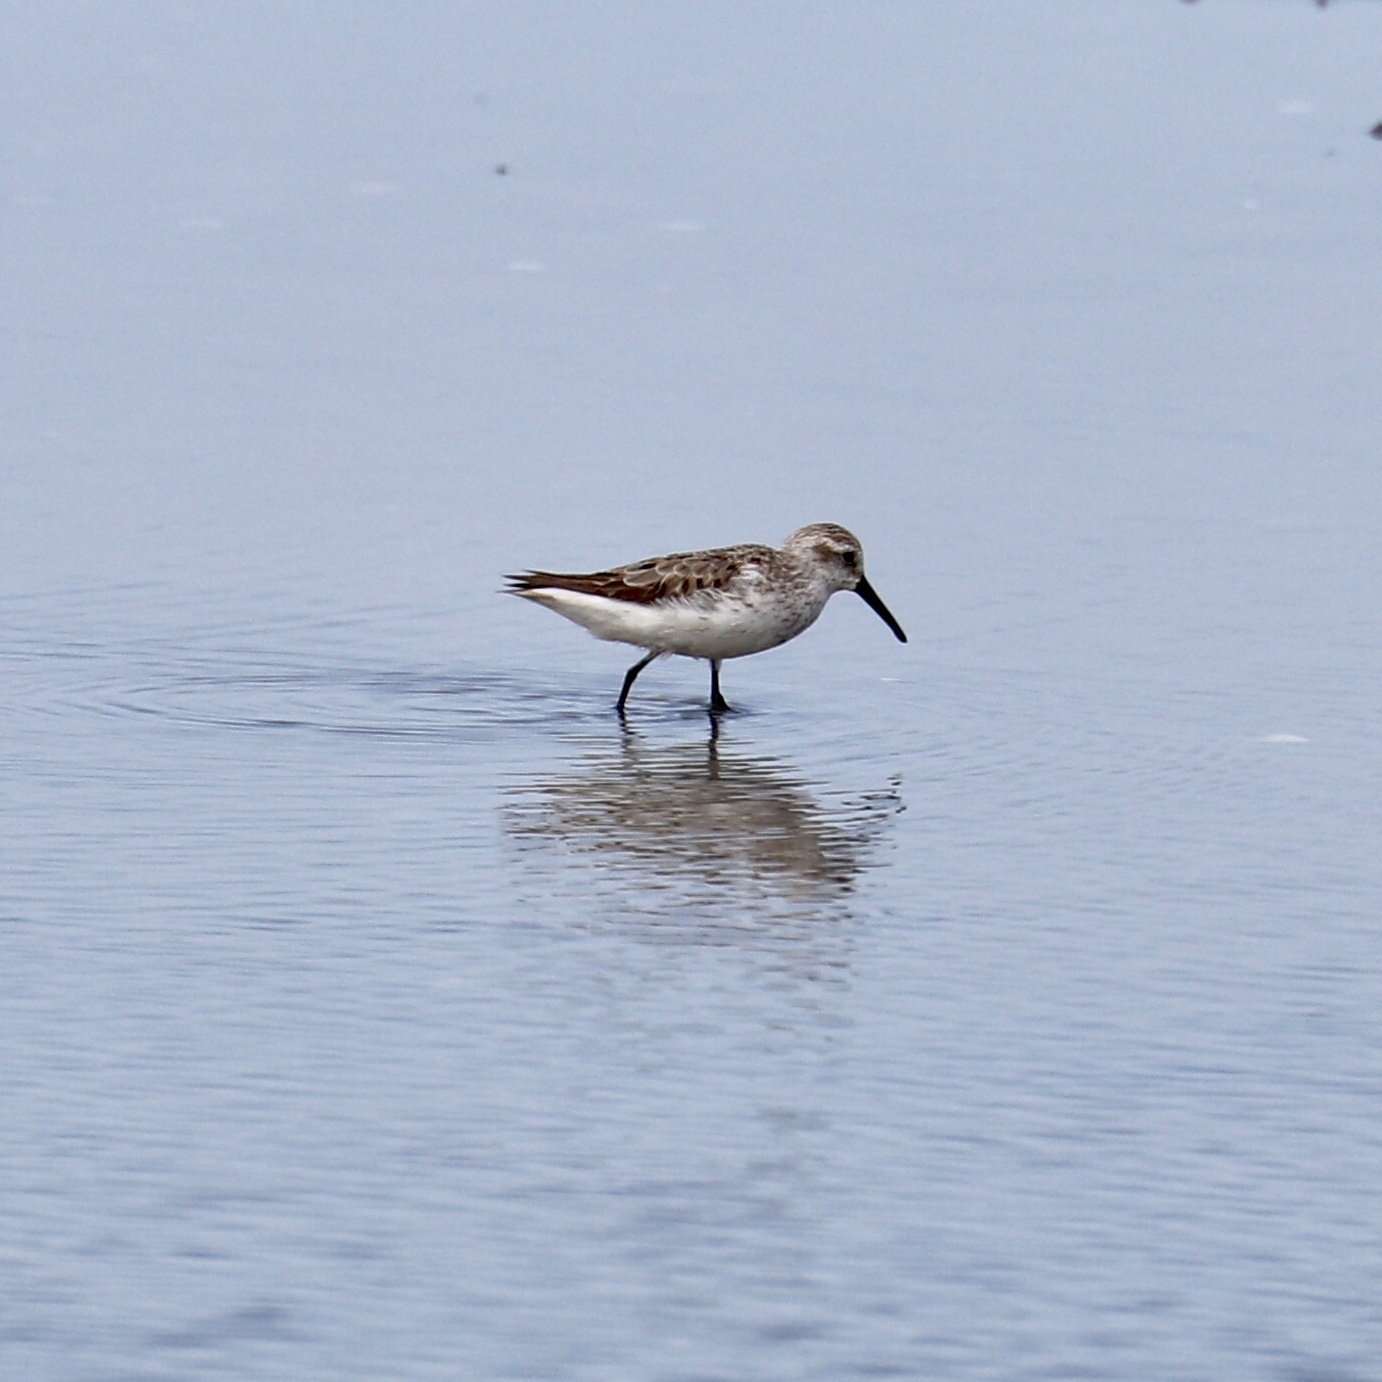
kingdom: Animalia
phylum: Chordata
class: Aves
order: Charadriiformes
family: Scolopacidae
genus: Calidris
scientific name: Calidris mauri
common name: Western sandpiper
